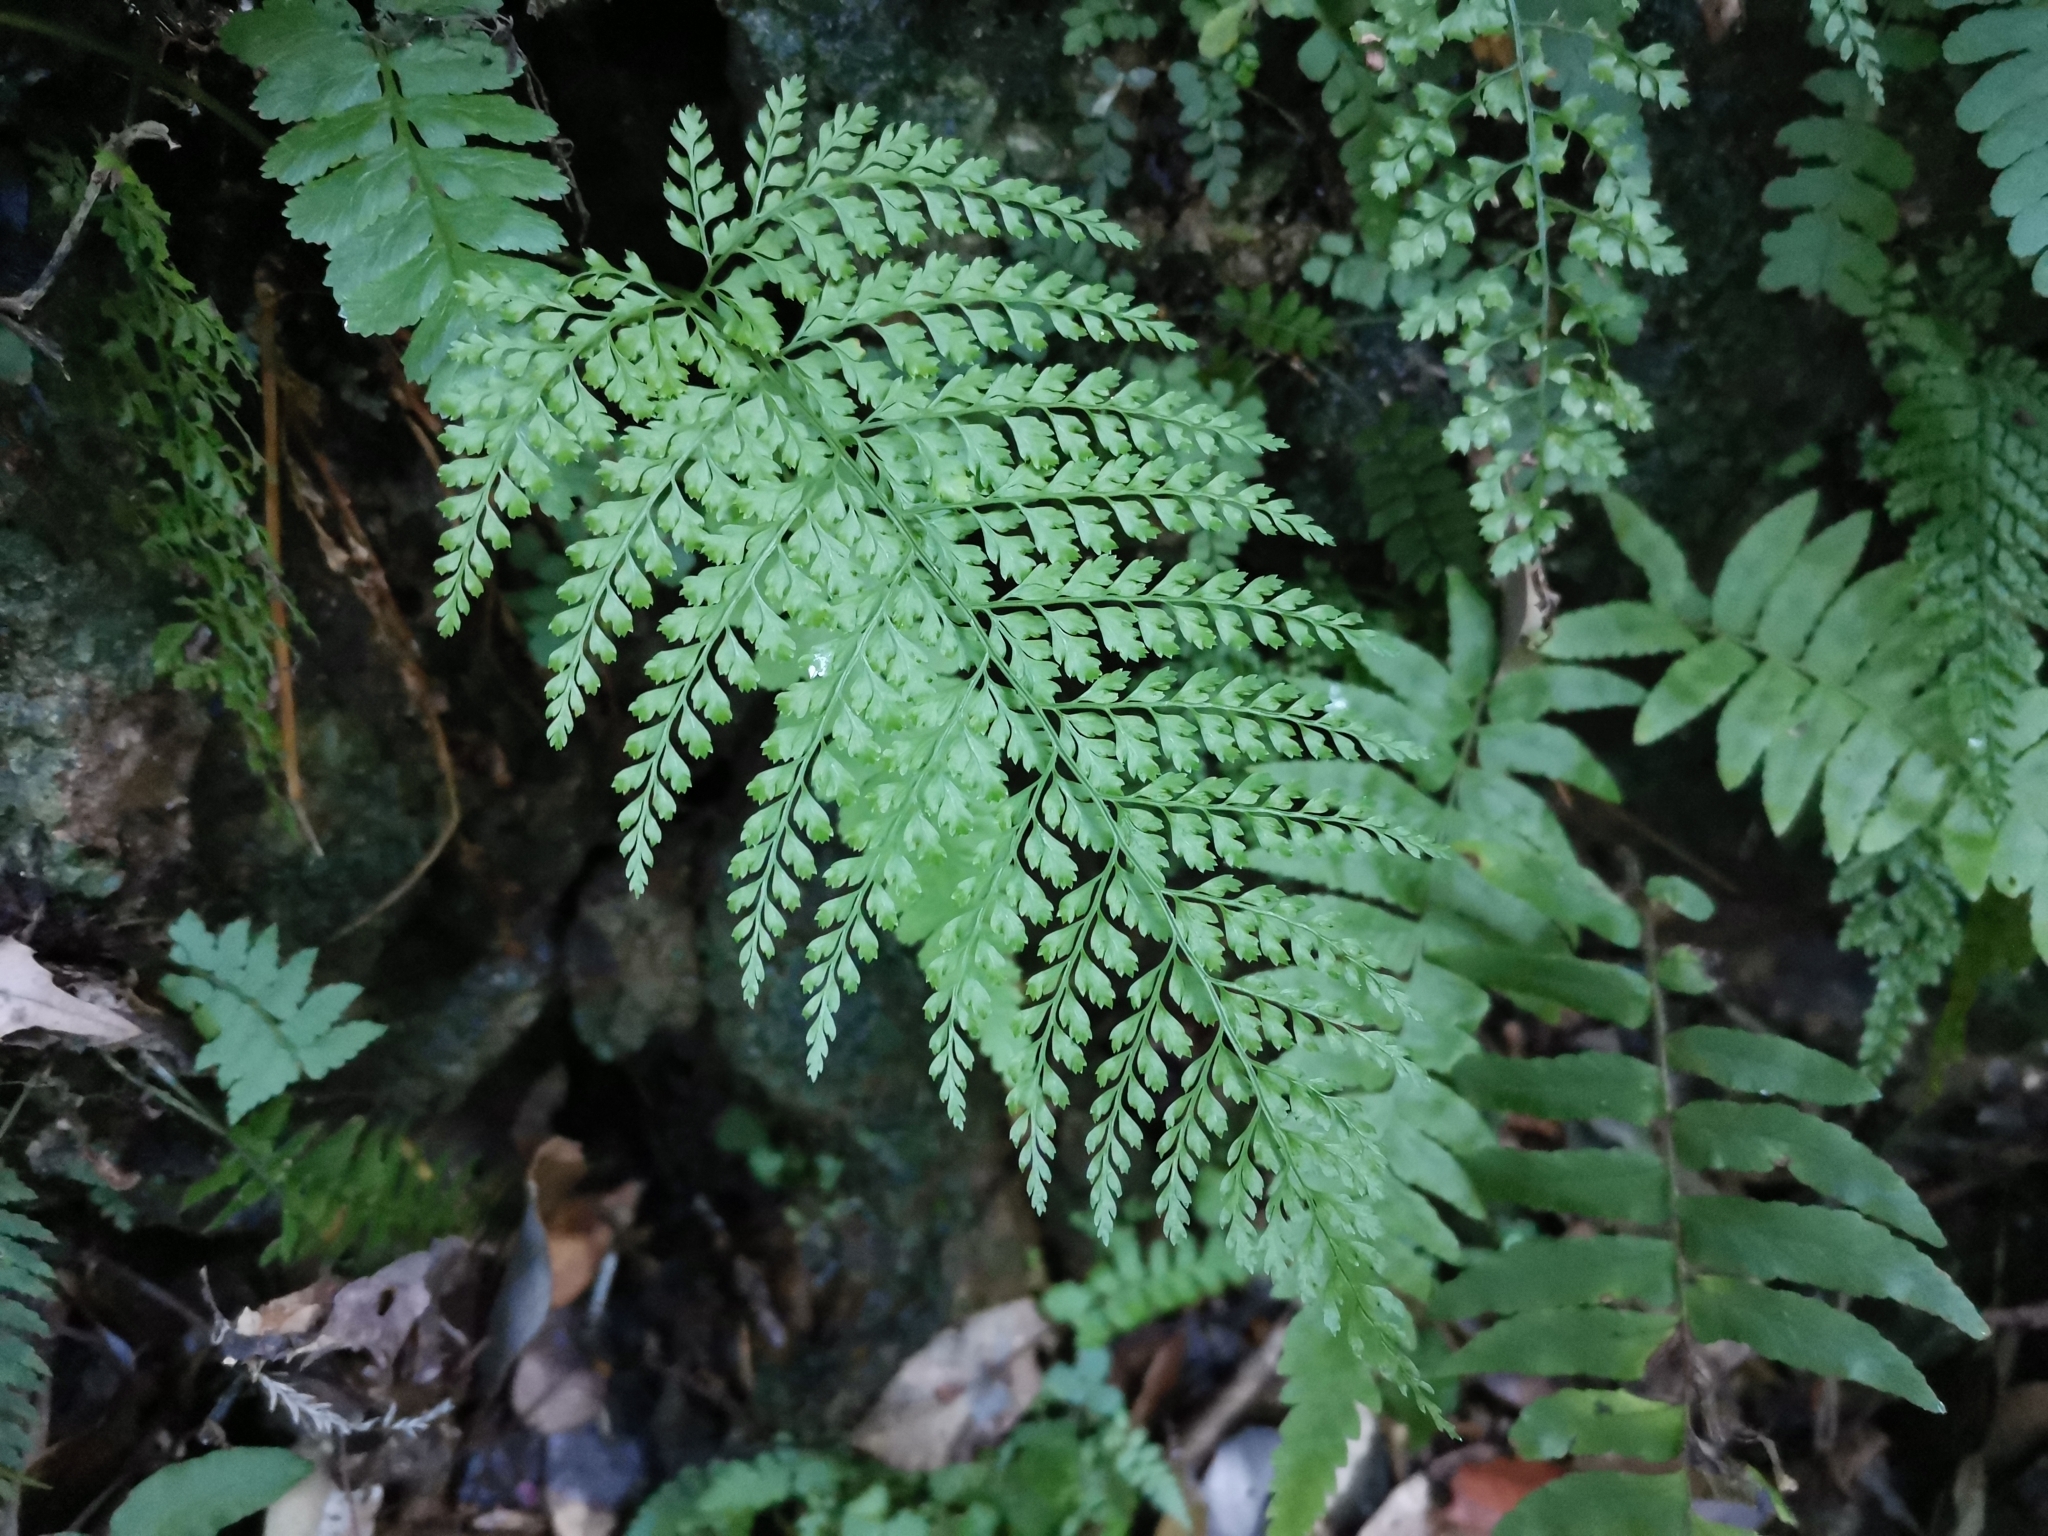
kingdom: Plantae
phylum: Tracheophyta
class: Polypodiopsida
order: Polypodiales
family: Dryopteridaceae
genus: Arachniodes
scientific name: Arachniodes standishii
